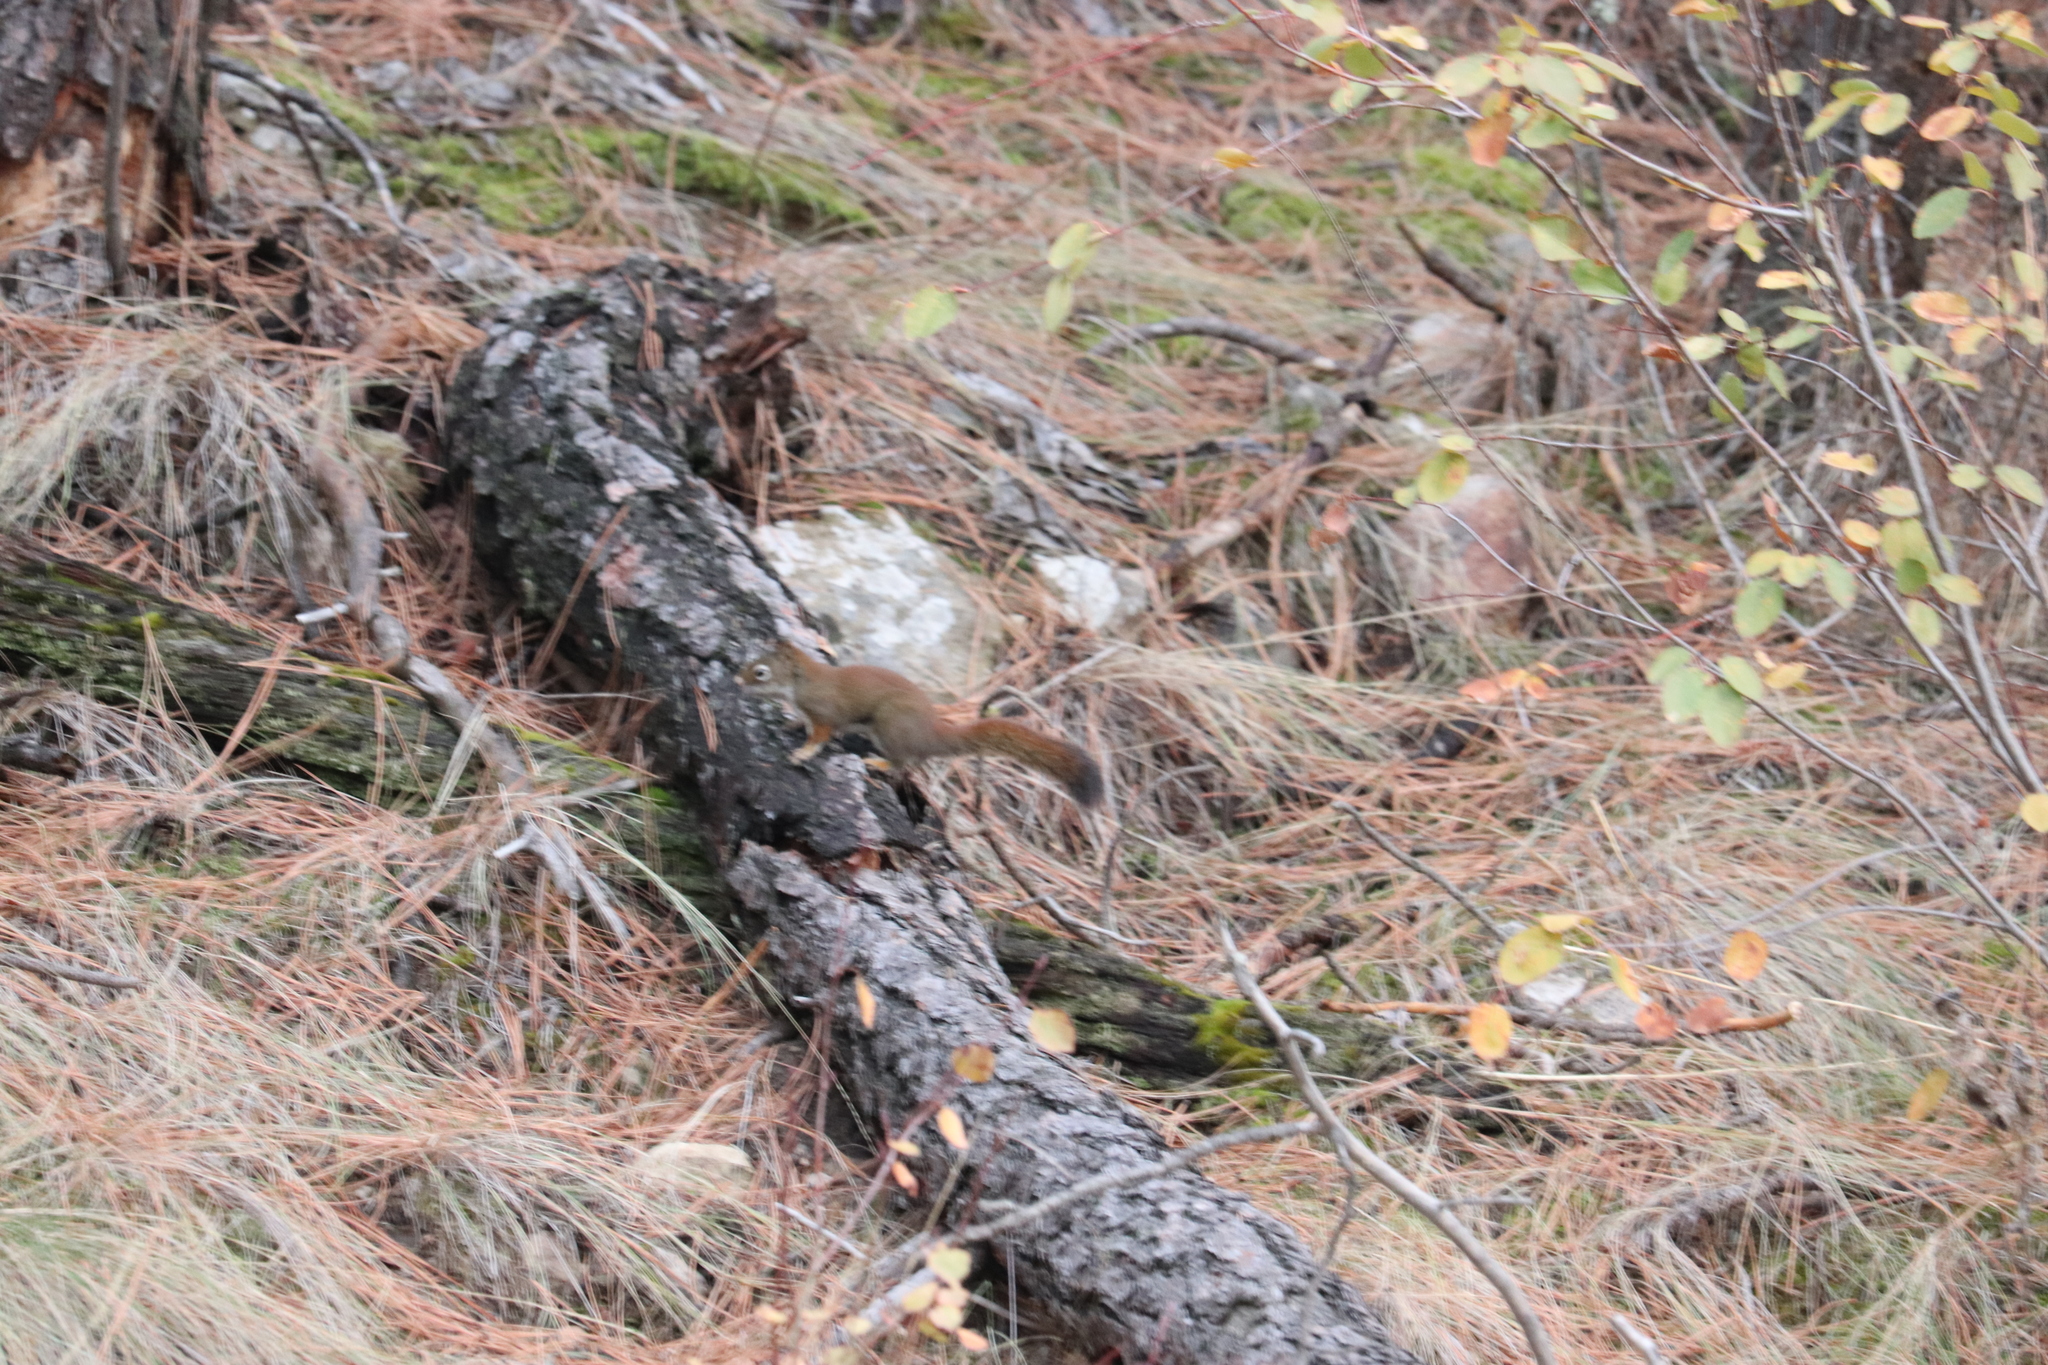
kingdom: Animalia
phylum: Chordata
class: Mammalia
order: Rodentia
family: Sciuridae
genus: Tamiasciurus
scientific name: Tamiasciurus hudsonicus
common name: Red squirrel
